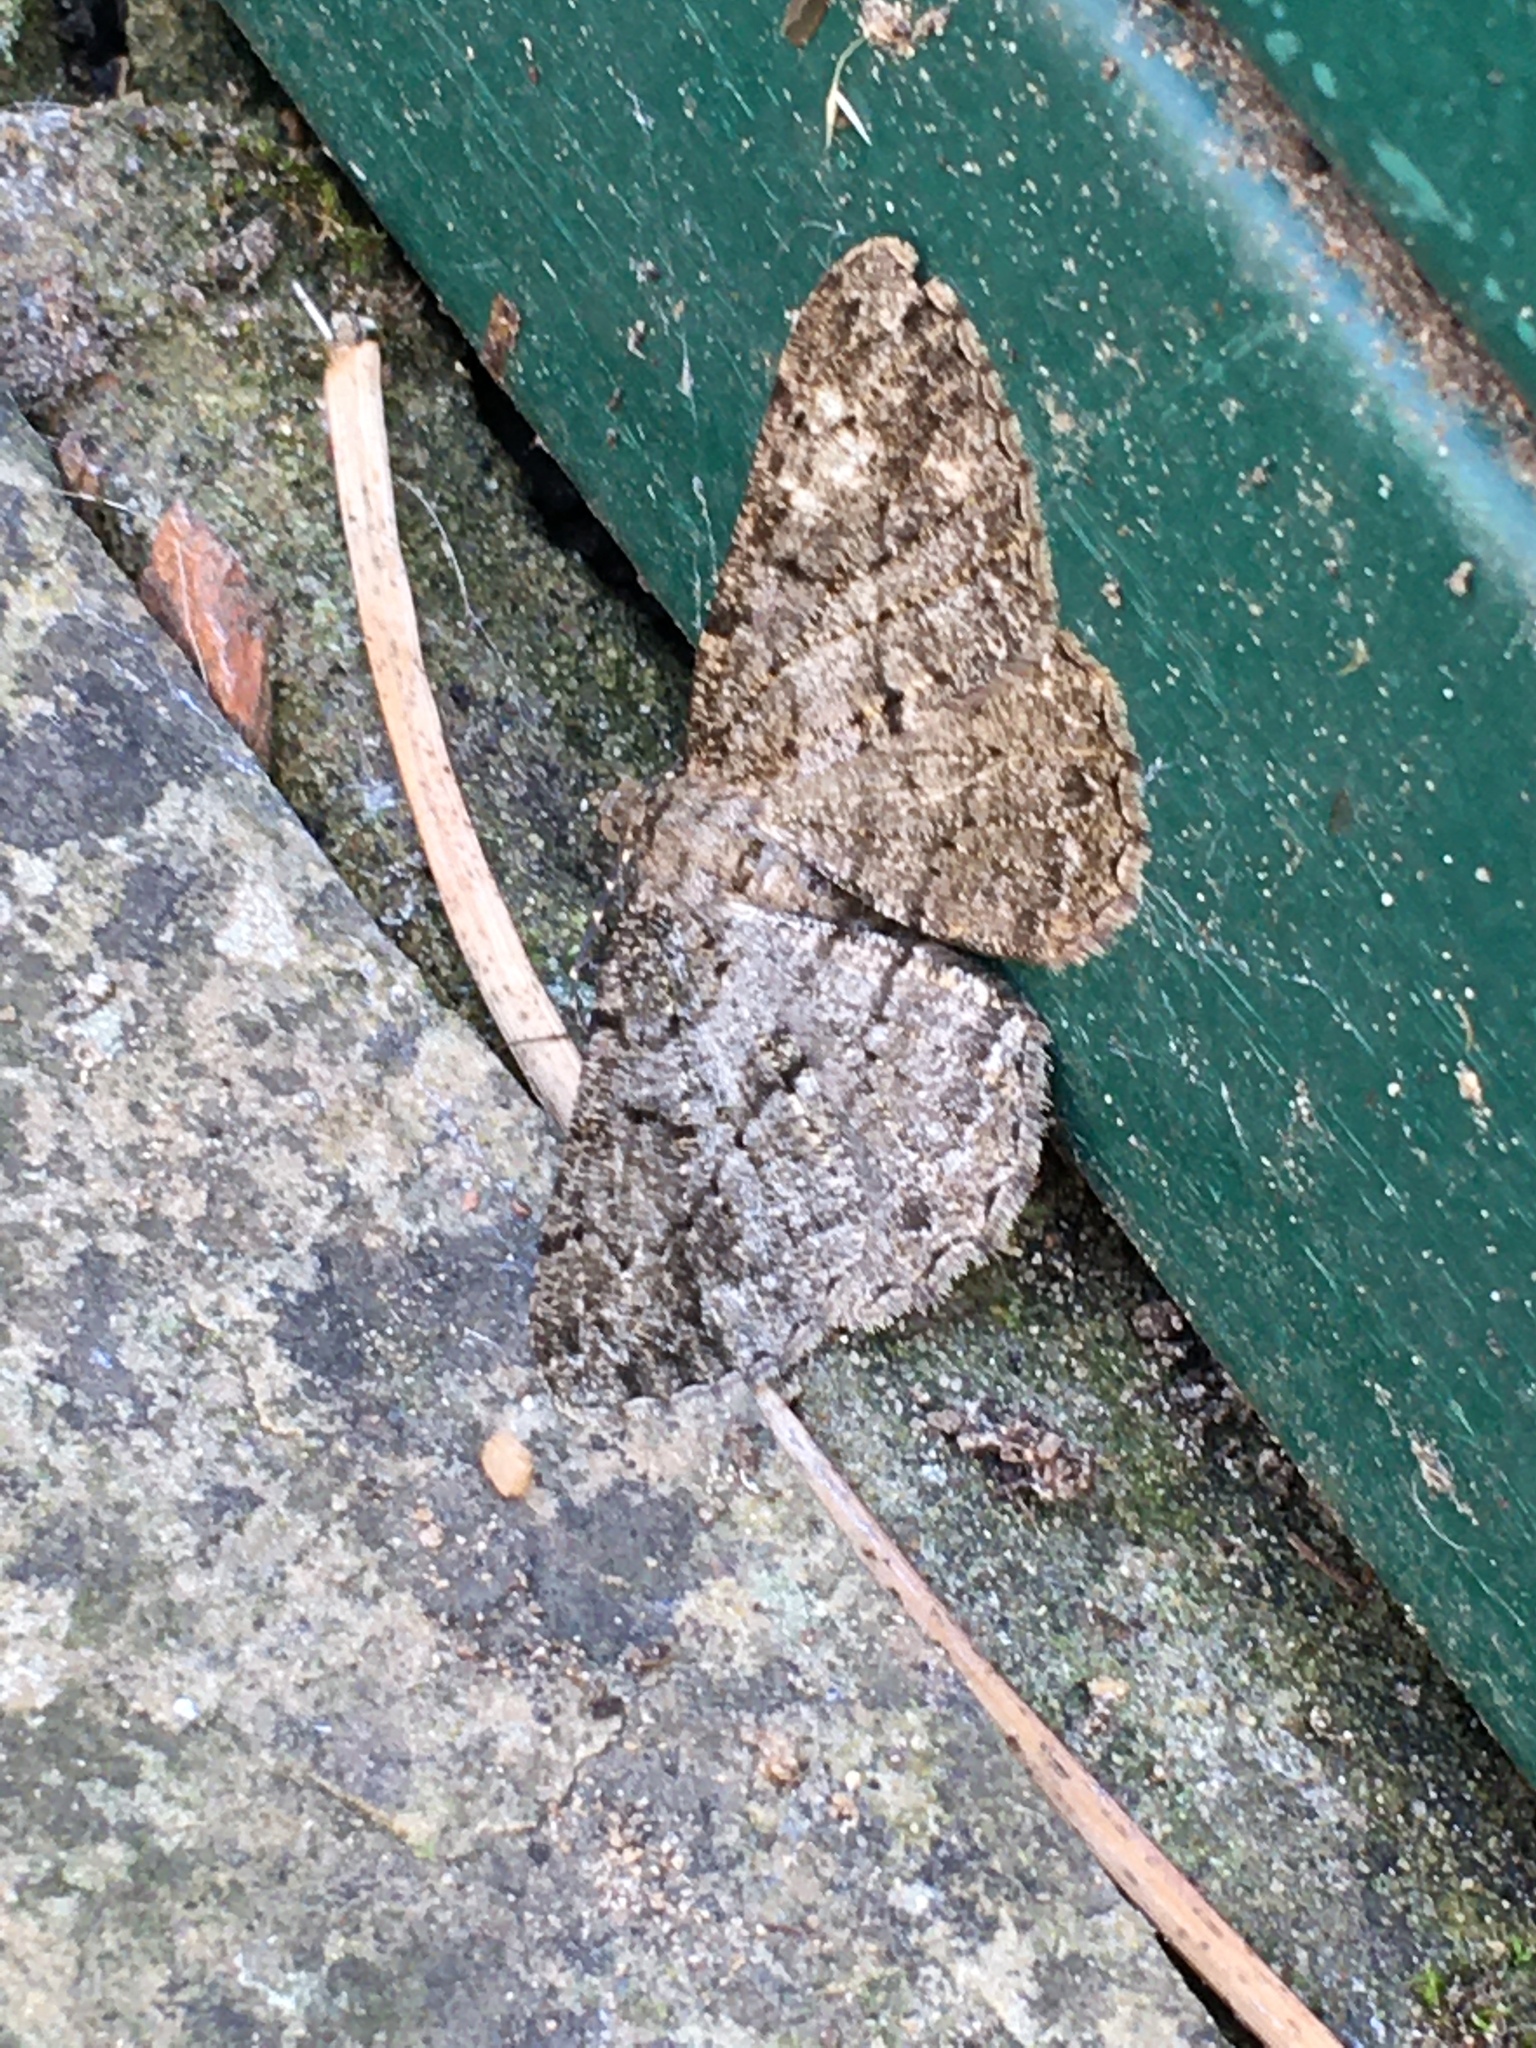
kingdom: Animalia
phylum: Arthropoda
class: Insecta
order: Lepidoptera
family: Geometridae
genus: Peribatodes
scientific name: Peribatodes rhomboidaria
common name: Willow beauty
